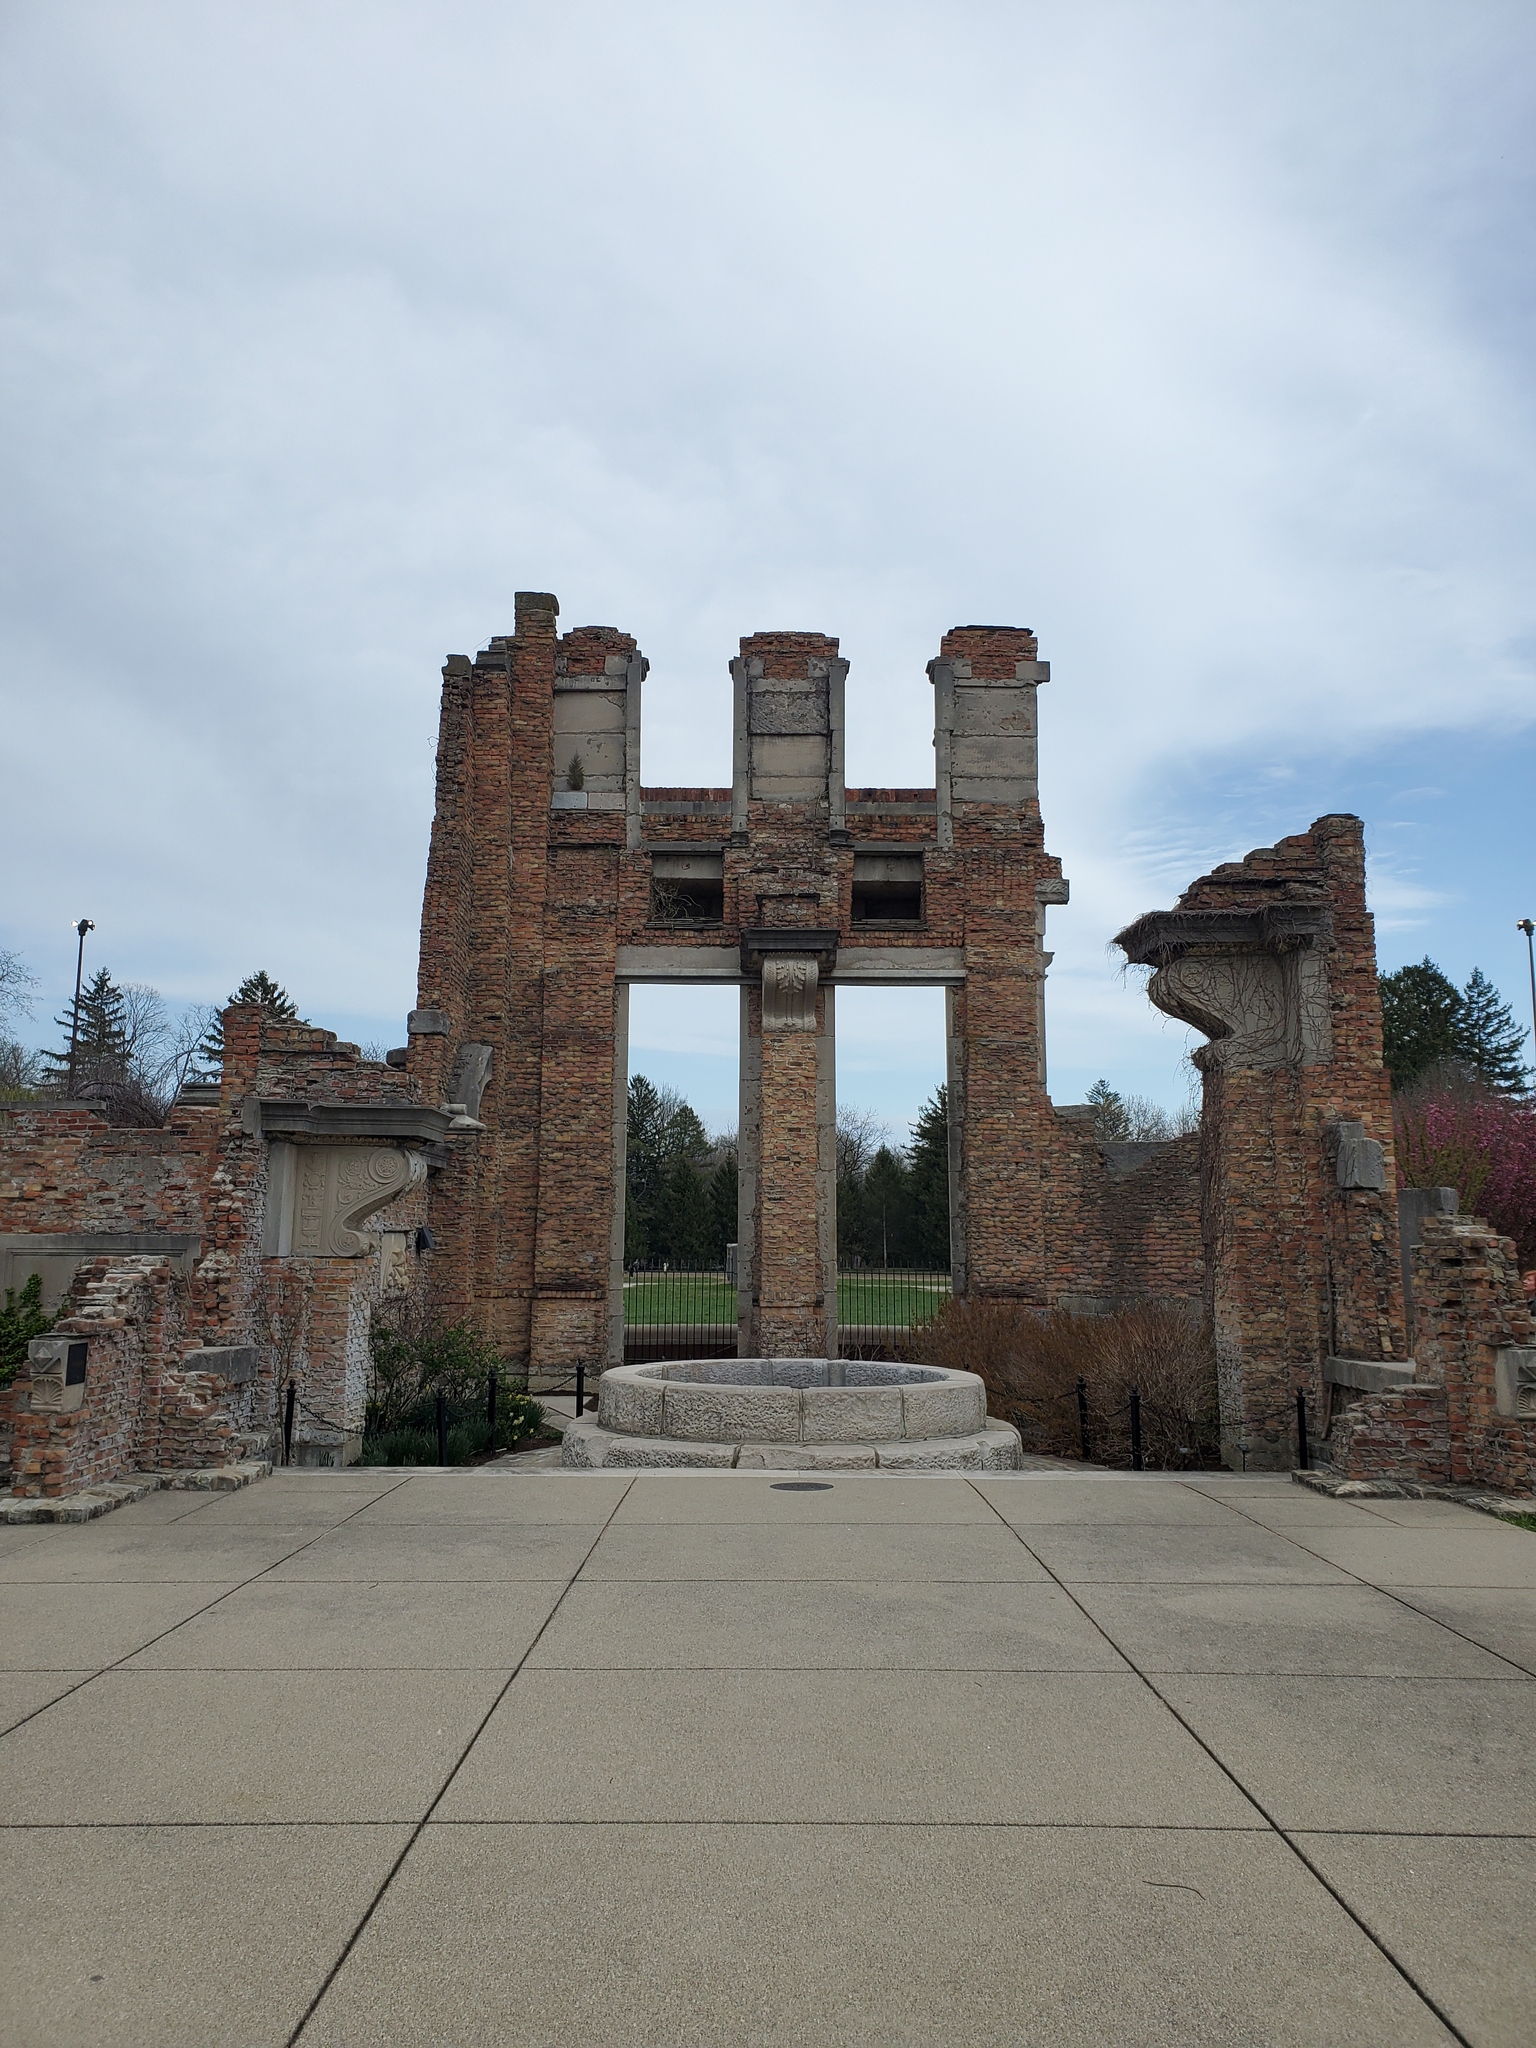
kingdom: Plantae
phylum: Tracheophyta
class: Pinopsida
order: Pinales
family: Cupressaceae
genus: Juniperus
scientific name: Juniperus virginiana
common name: Red juniper
